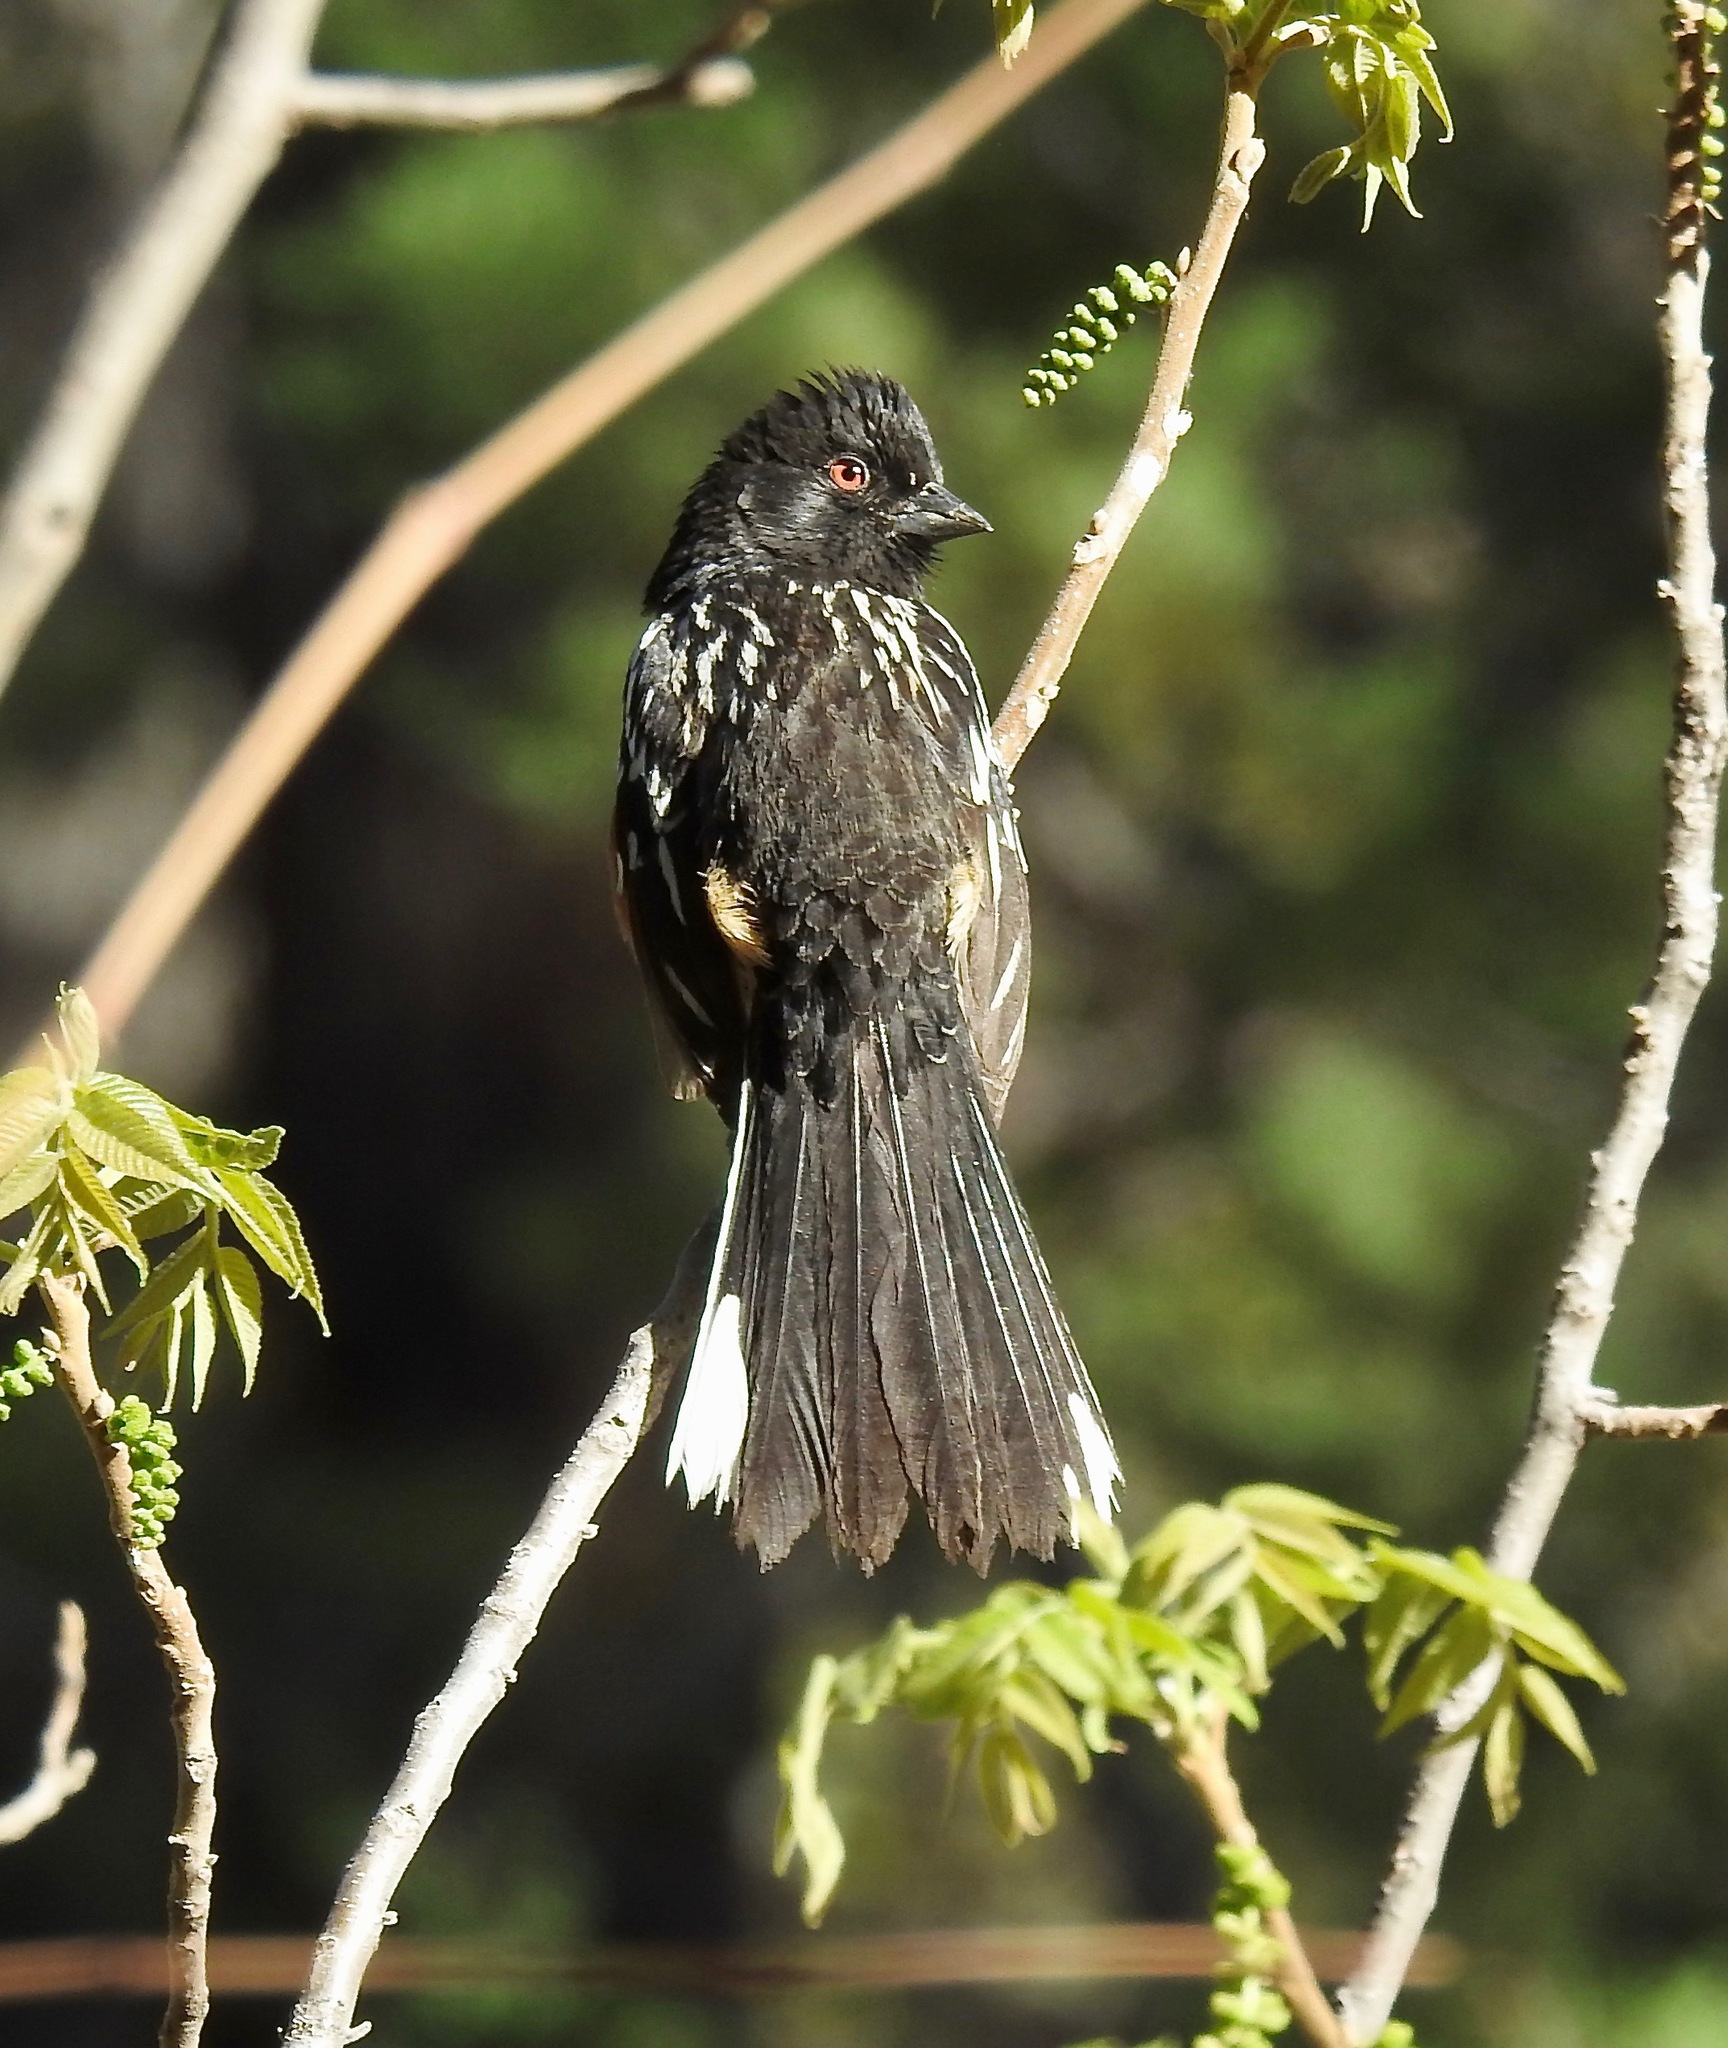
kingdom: Animalia
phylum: Chordata
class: Aves
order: Passeriformes
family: Passerellidae
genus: Pipilo
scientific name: Pipilo maculatus
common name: Spotted towhee
